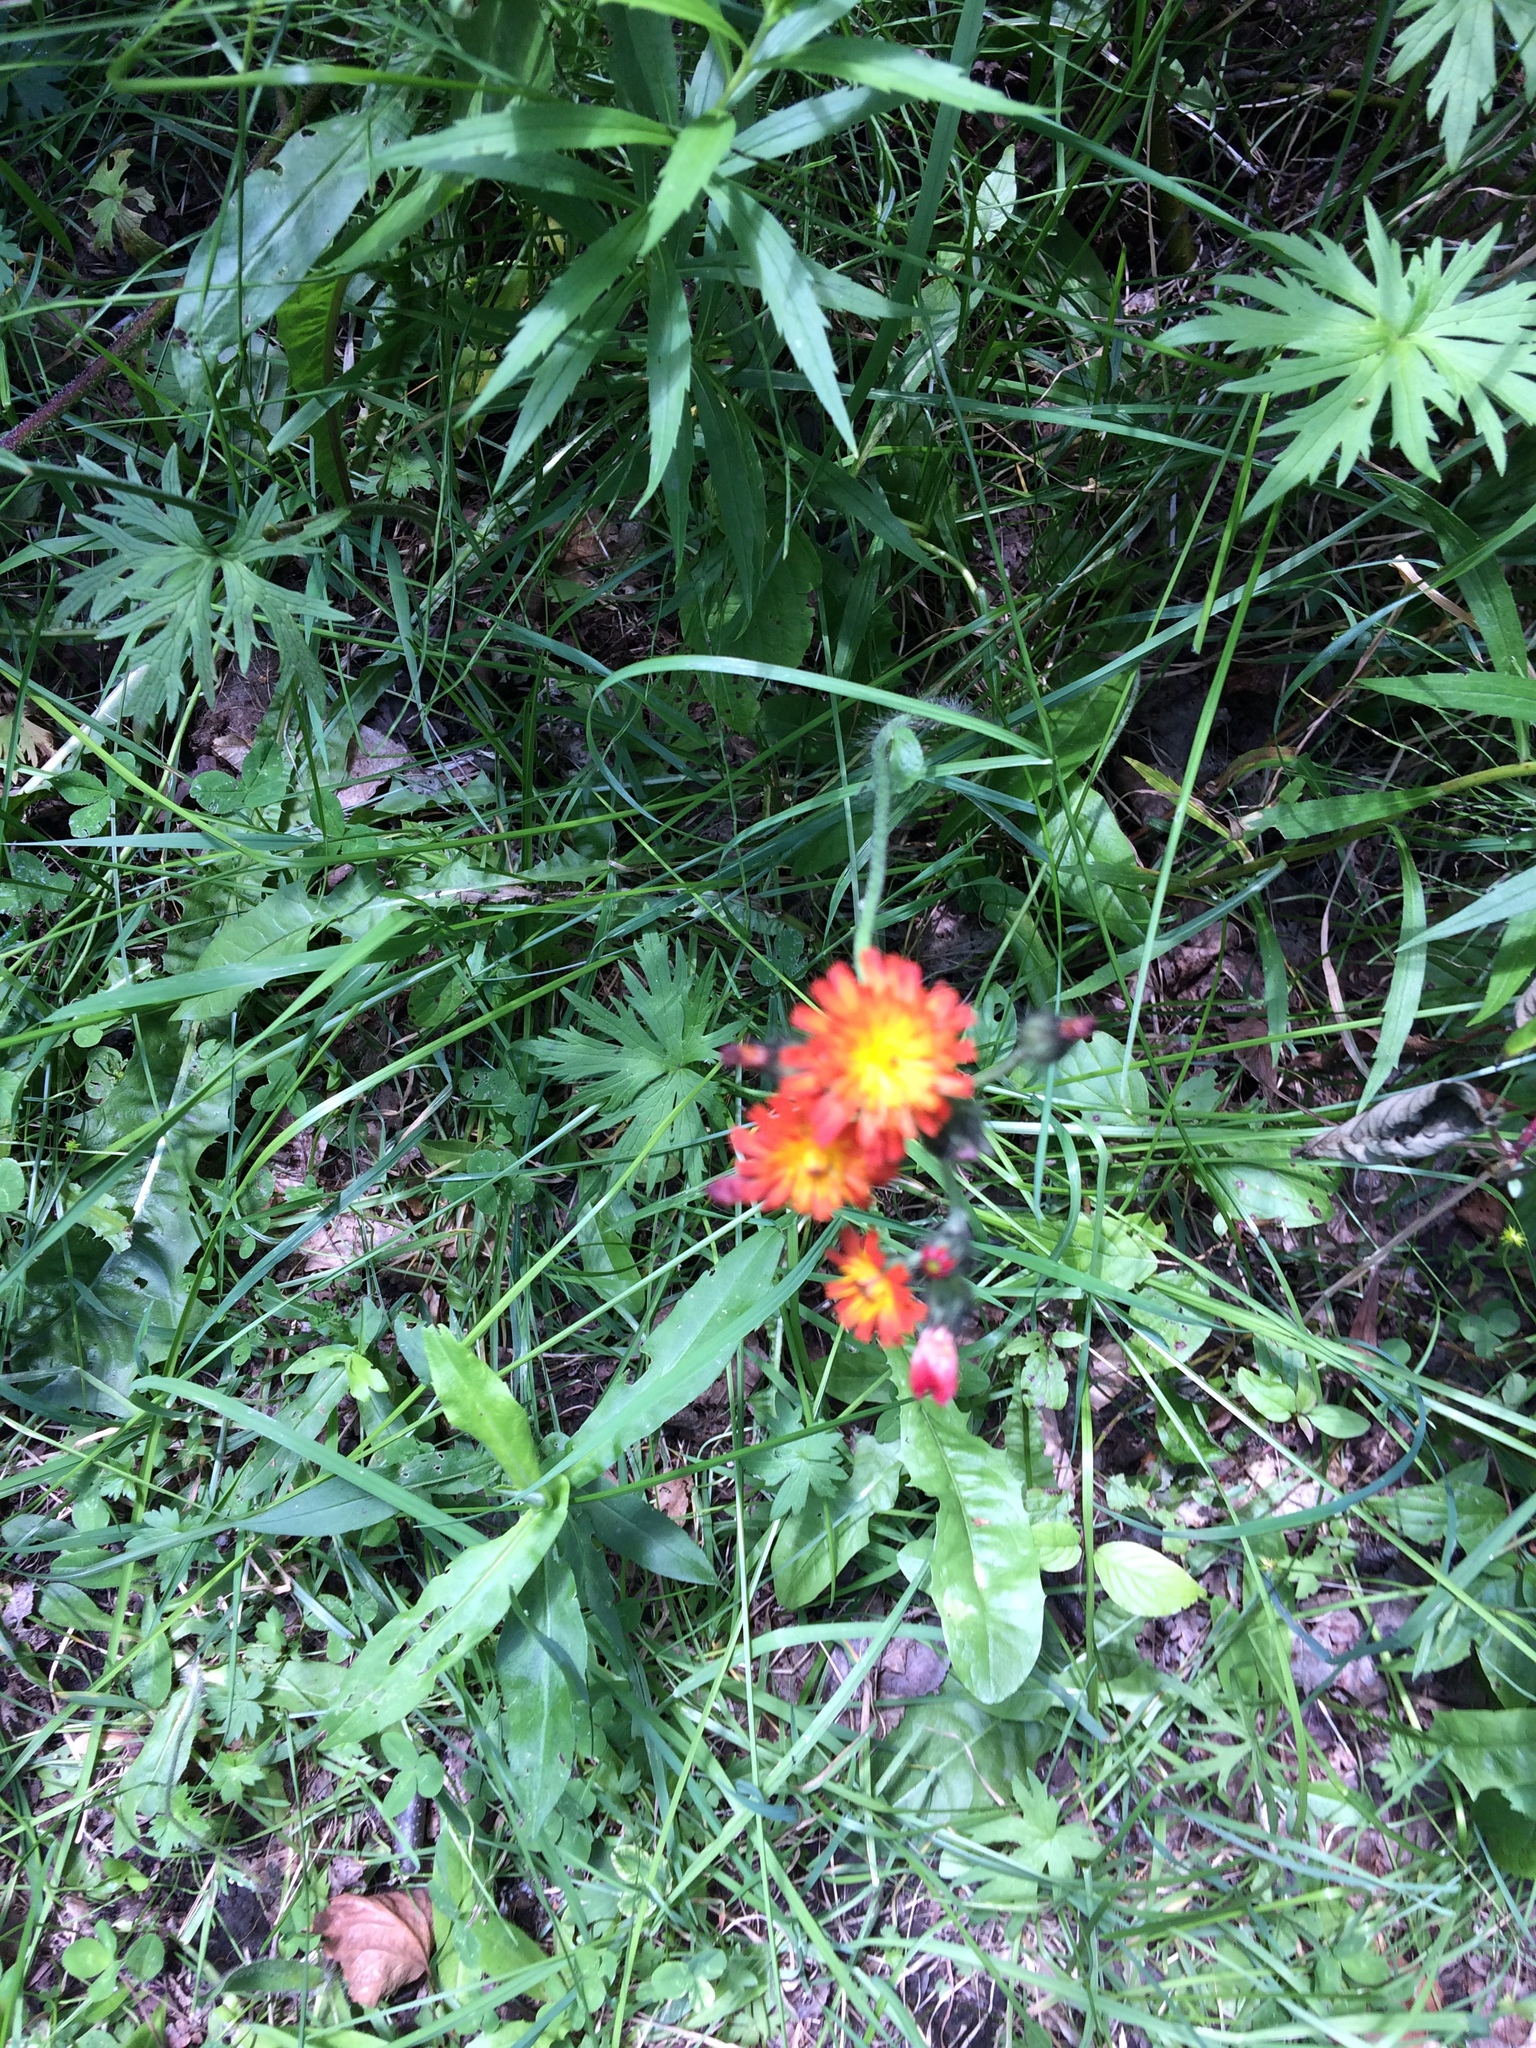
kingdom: Plantae
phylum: Tracheophyta
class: Magnoliopsida
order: Asterales
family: Asteraceae
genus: Pilosella
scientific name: Pilosella aurantiaca
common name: Fox-and-cubs
